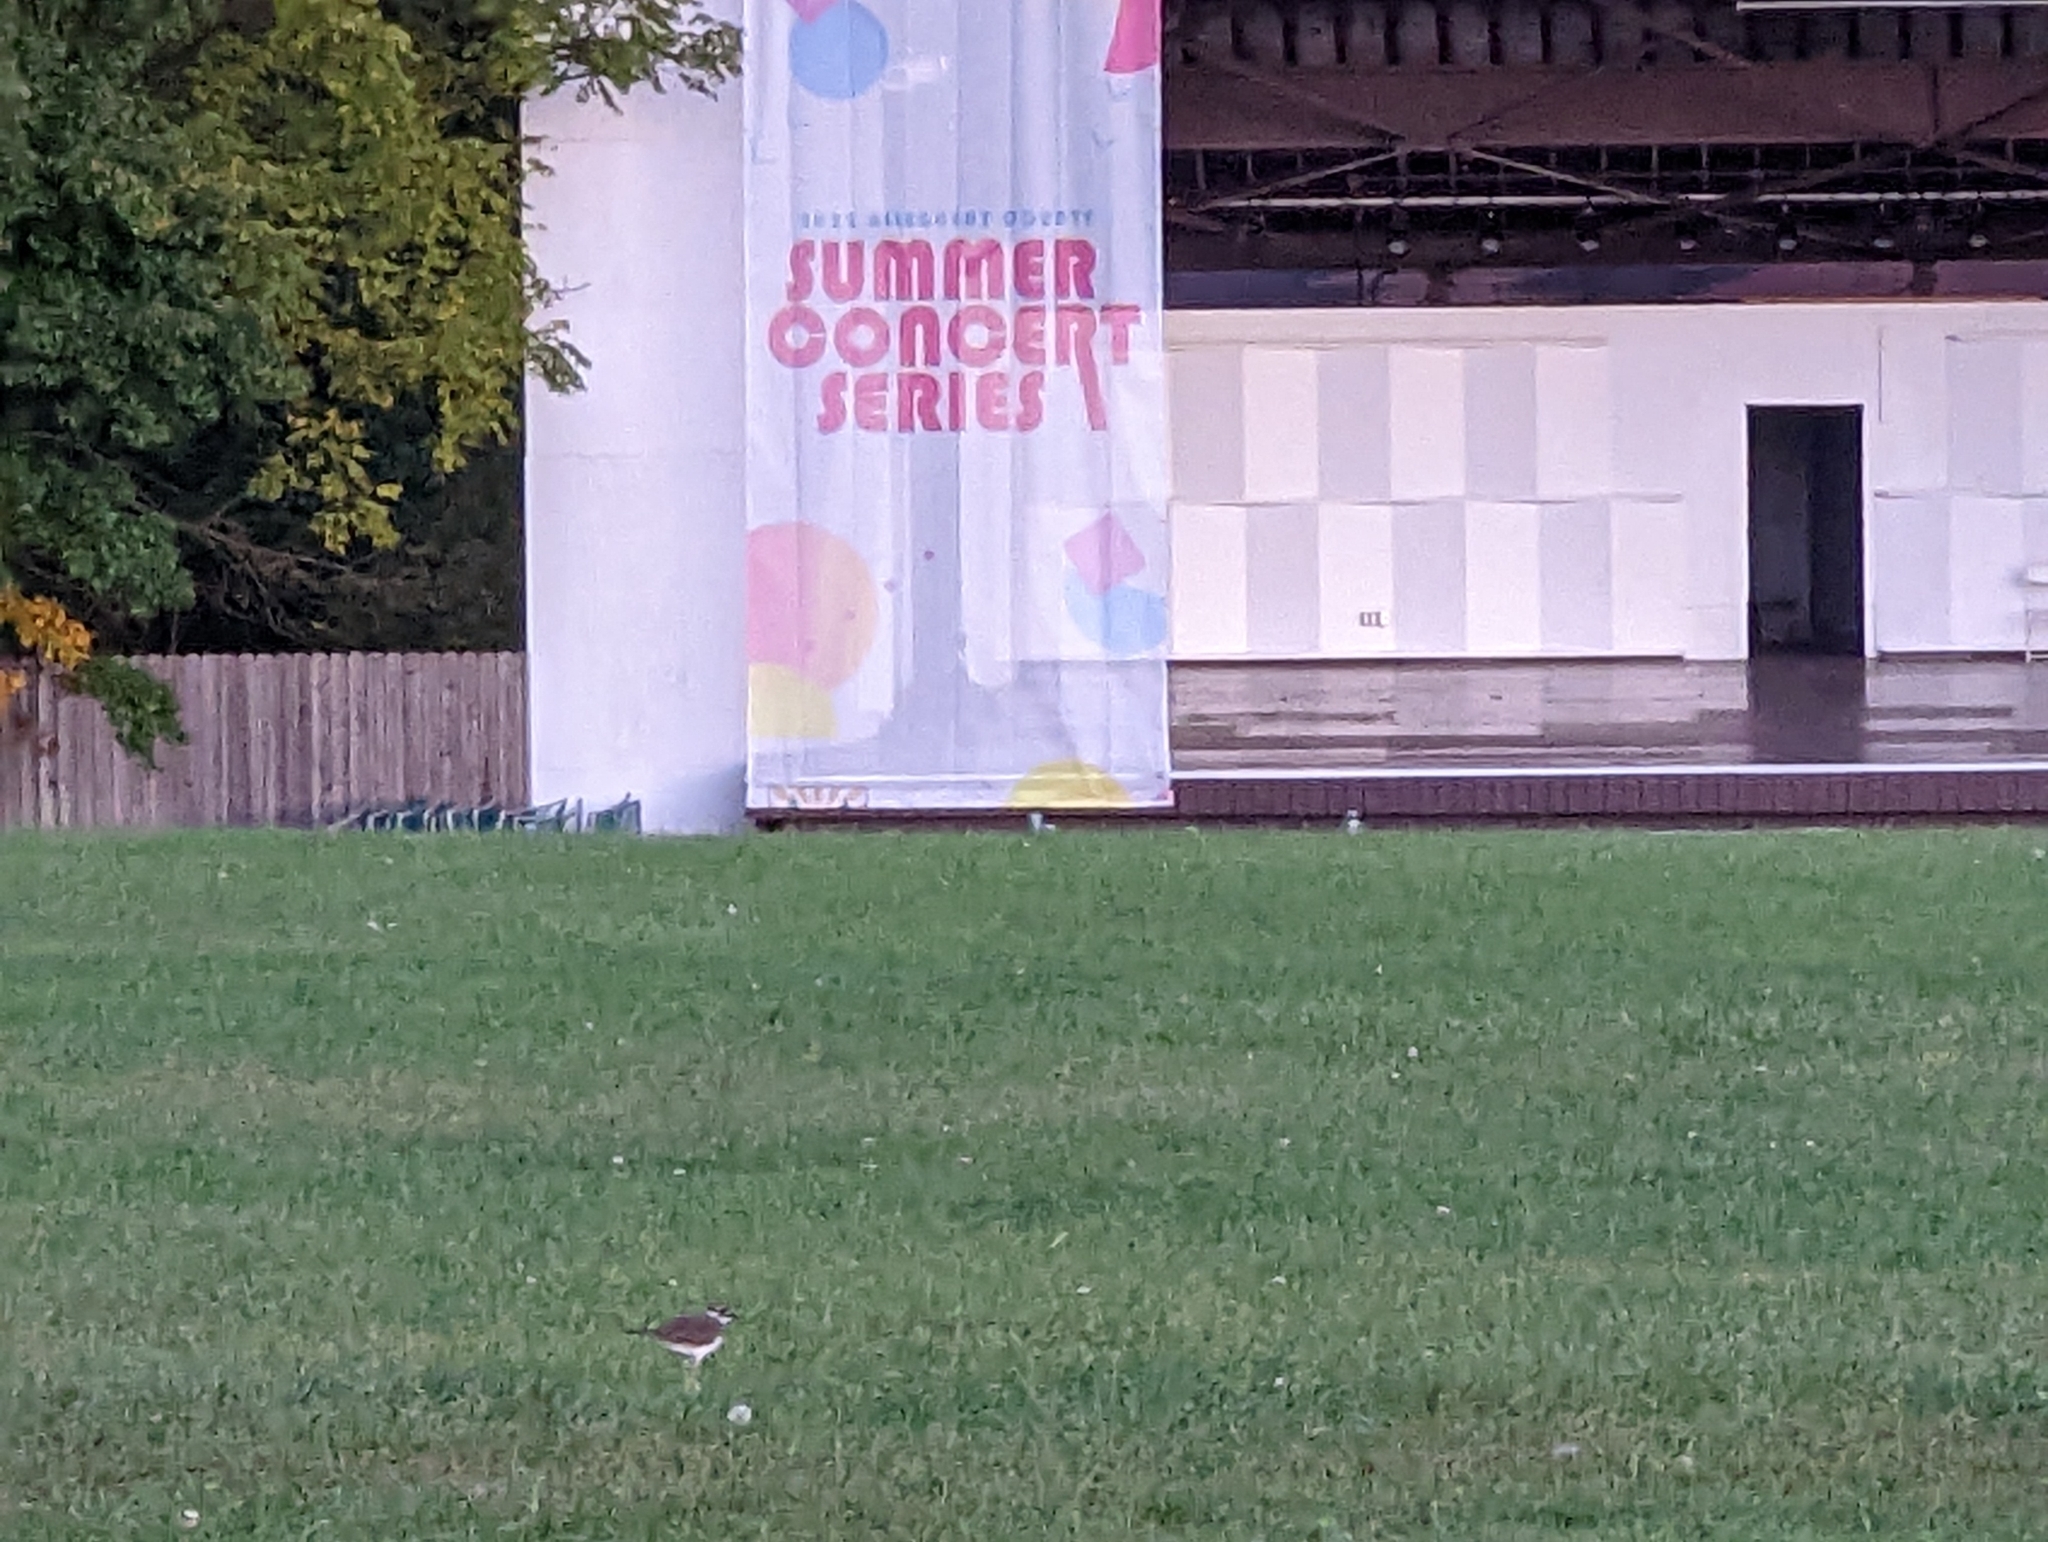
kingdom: Animalia
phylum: Chordata
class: Aves
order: Charadriiformes
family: Charadriidae
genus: Charadrius
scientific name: Charadrius vociferus
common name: Killdeer
